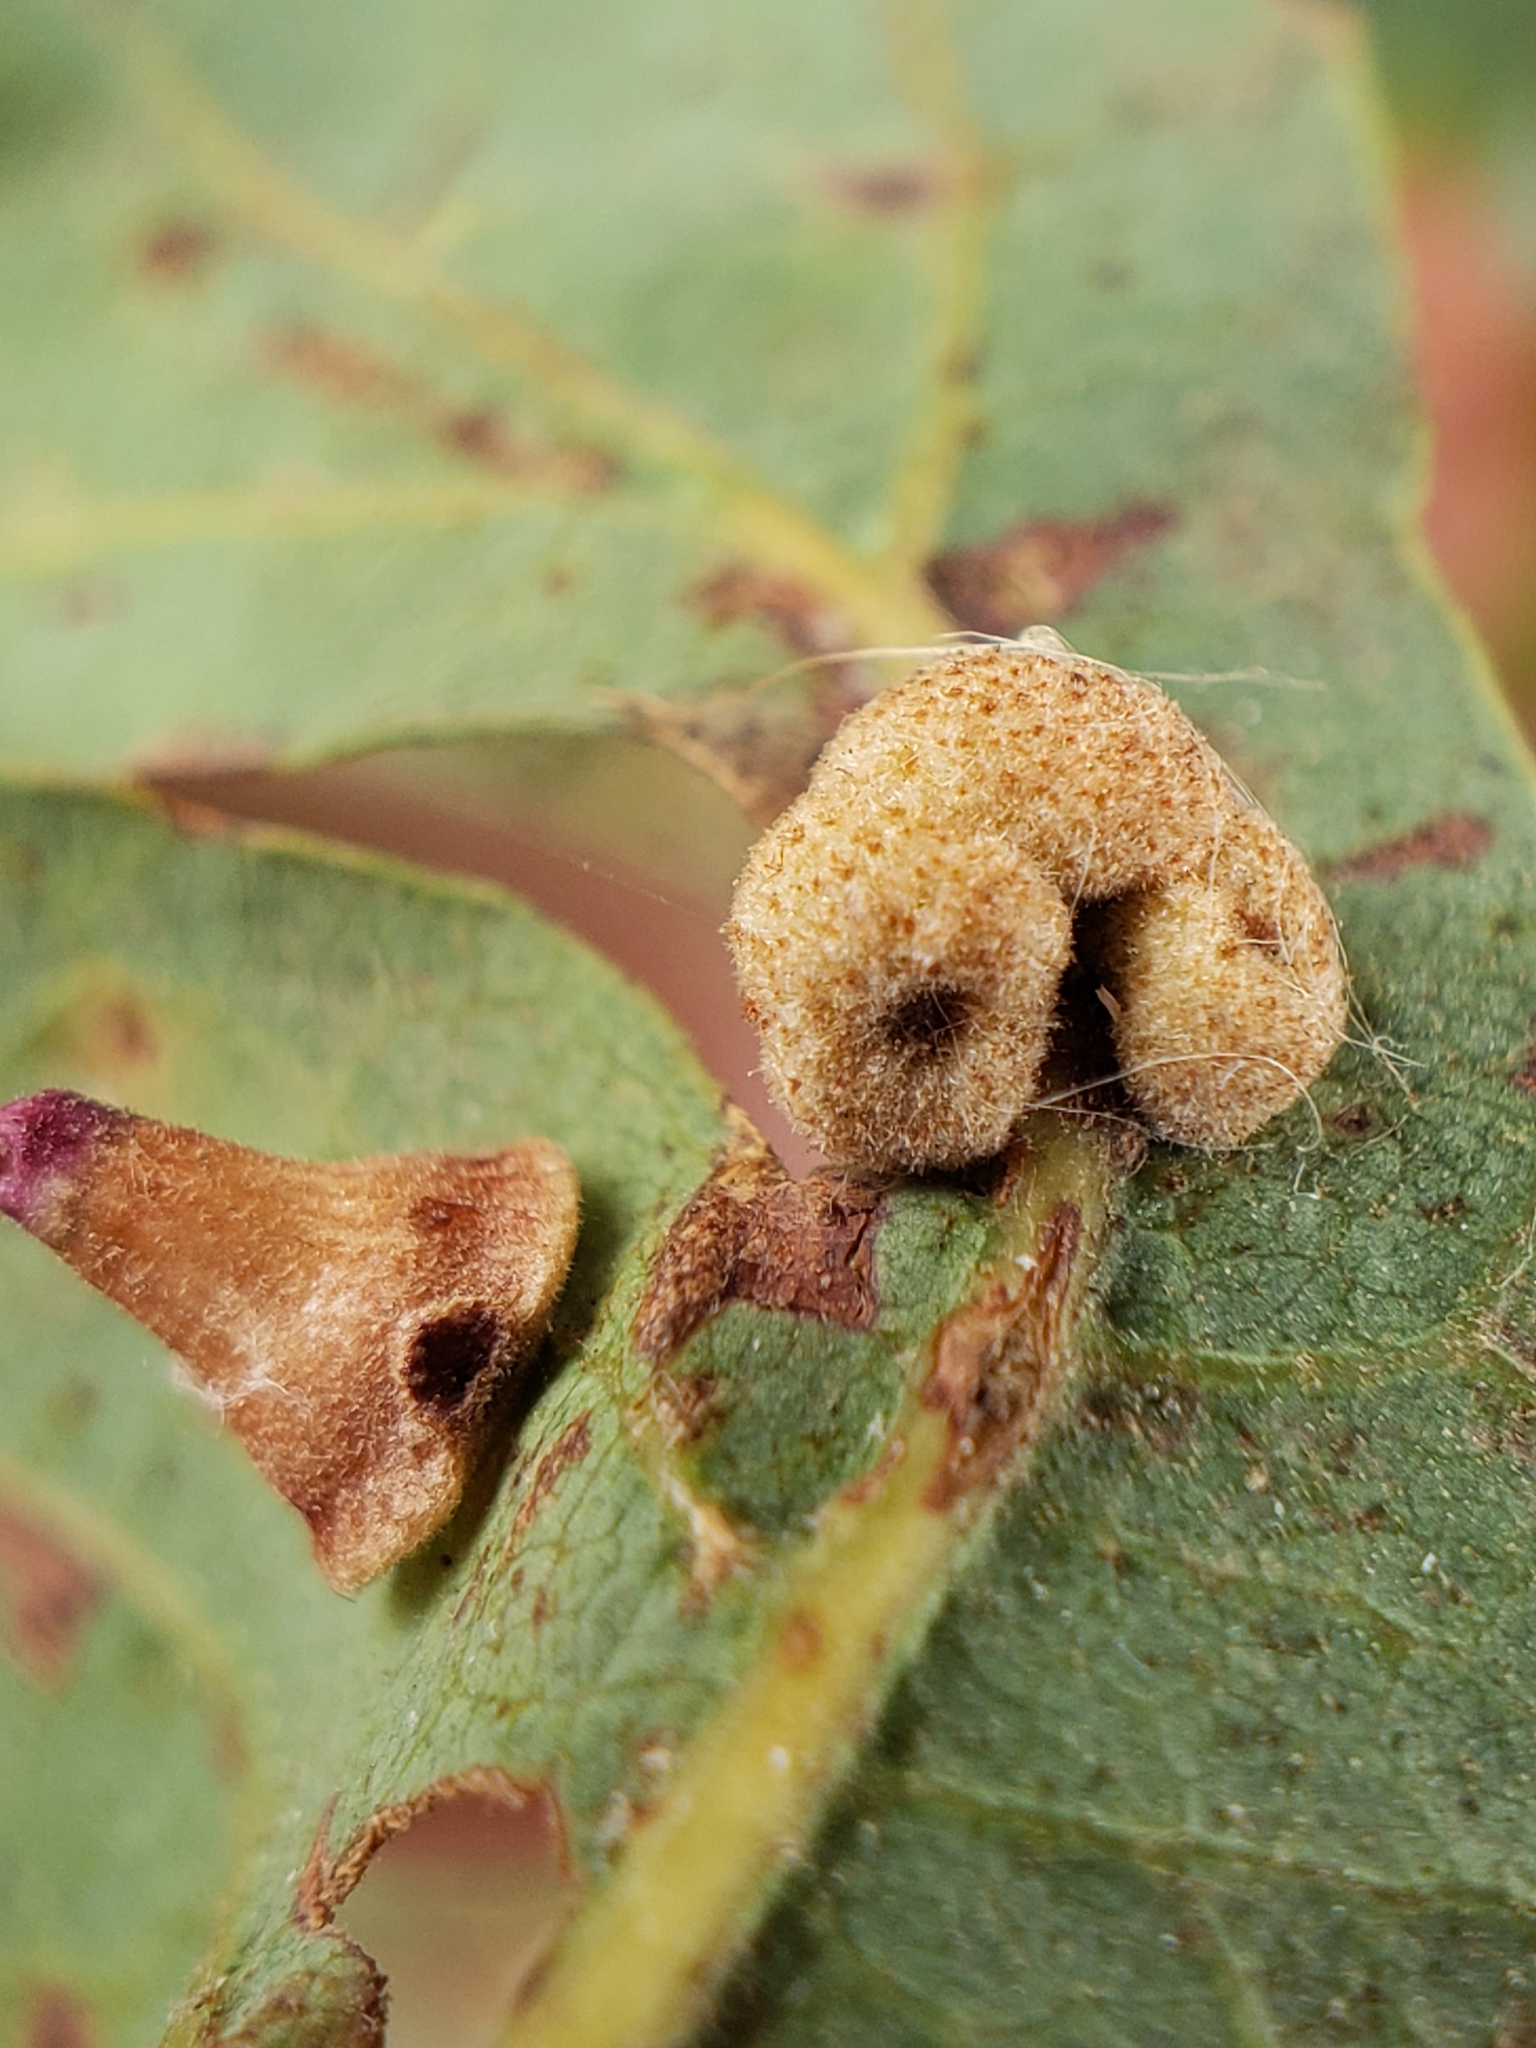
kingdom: Animalia
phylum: Arthropoda
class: Insecta
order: Hymenoptera
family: Cynipidae
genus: Andricus
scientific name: Andricus
